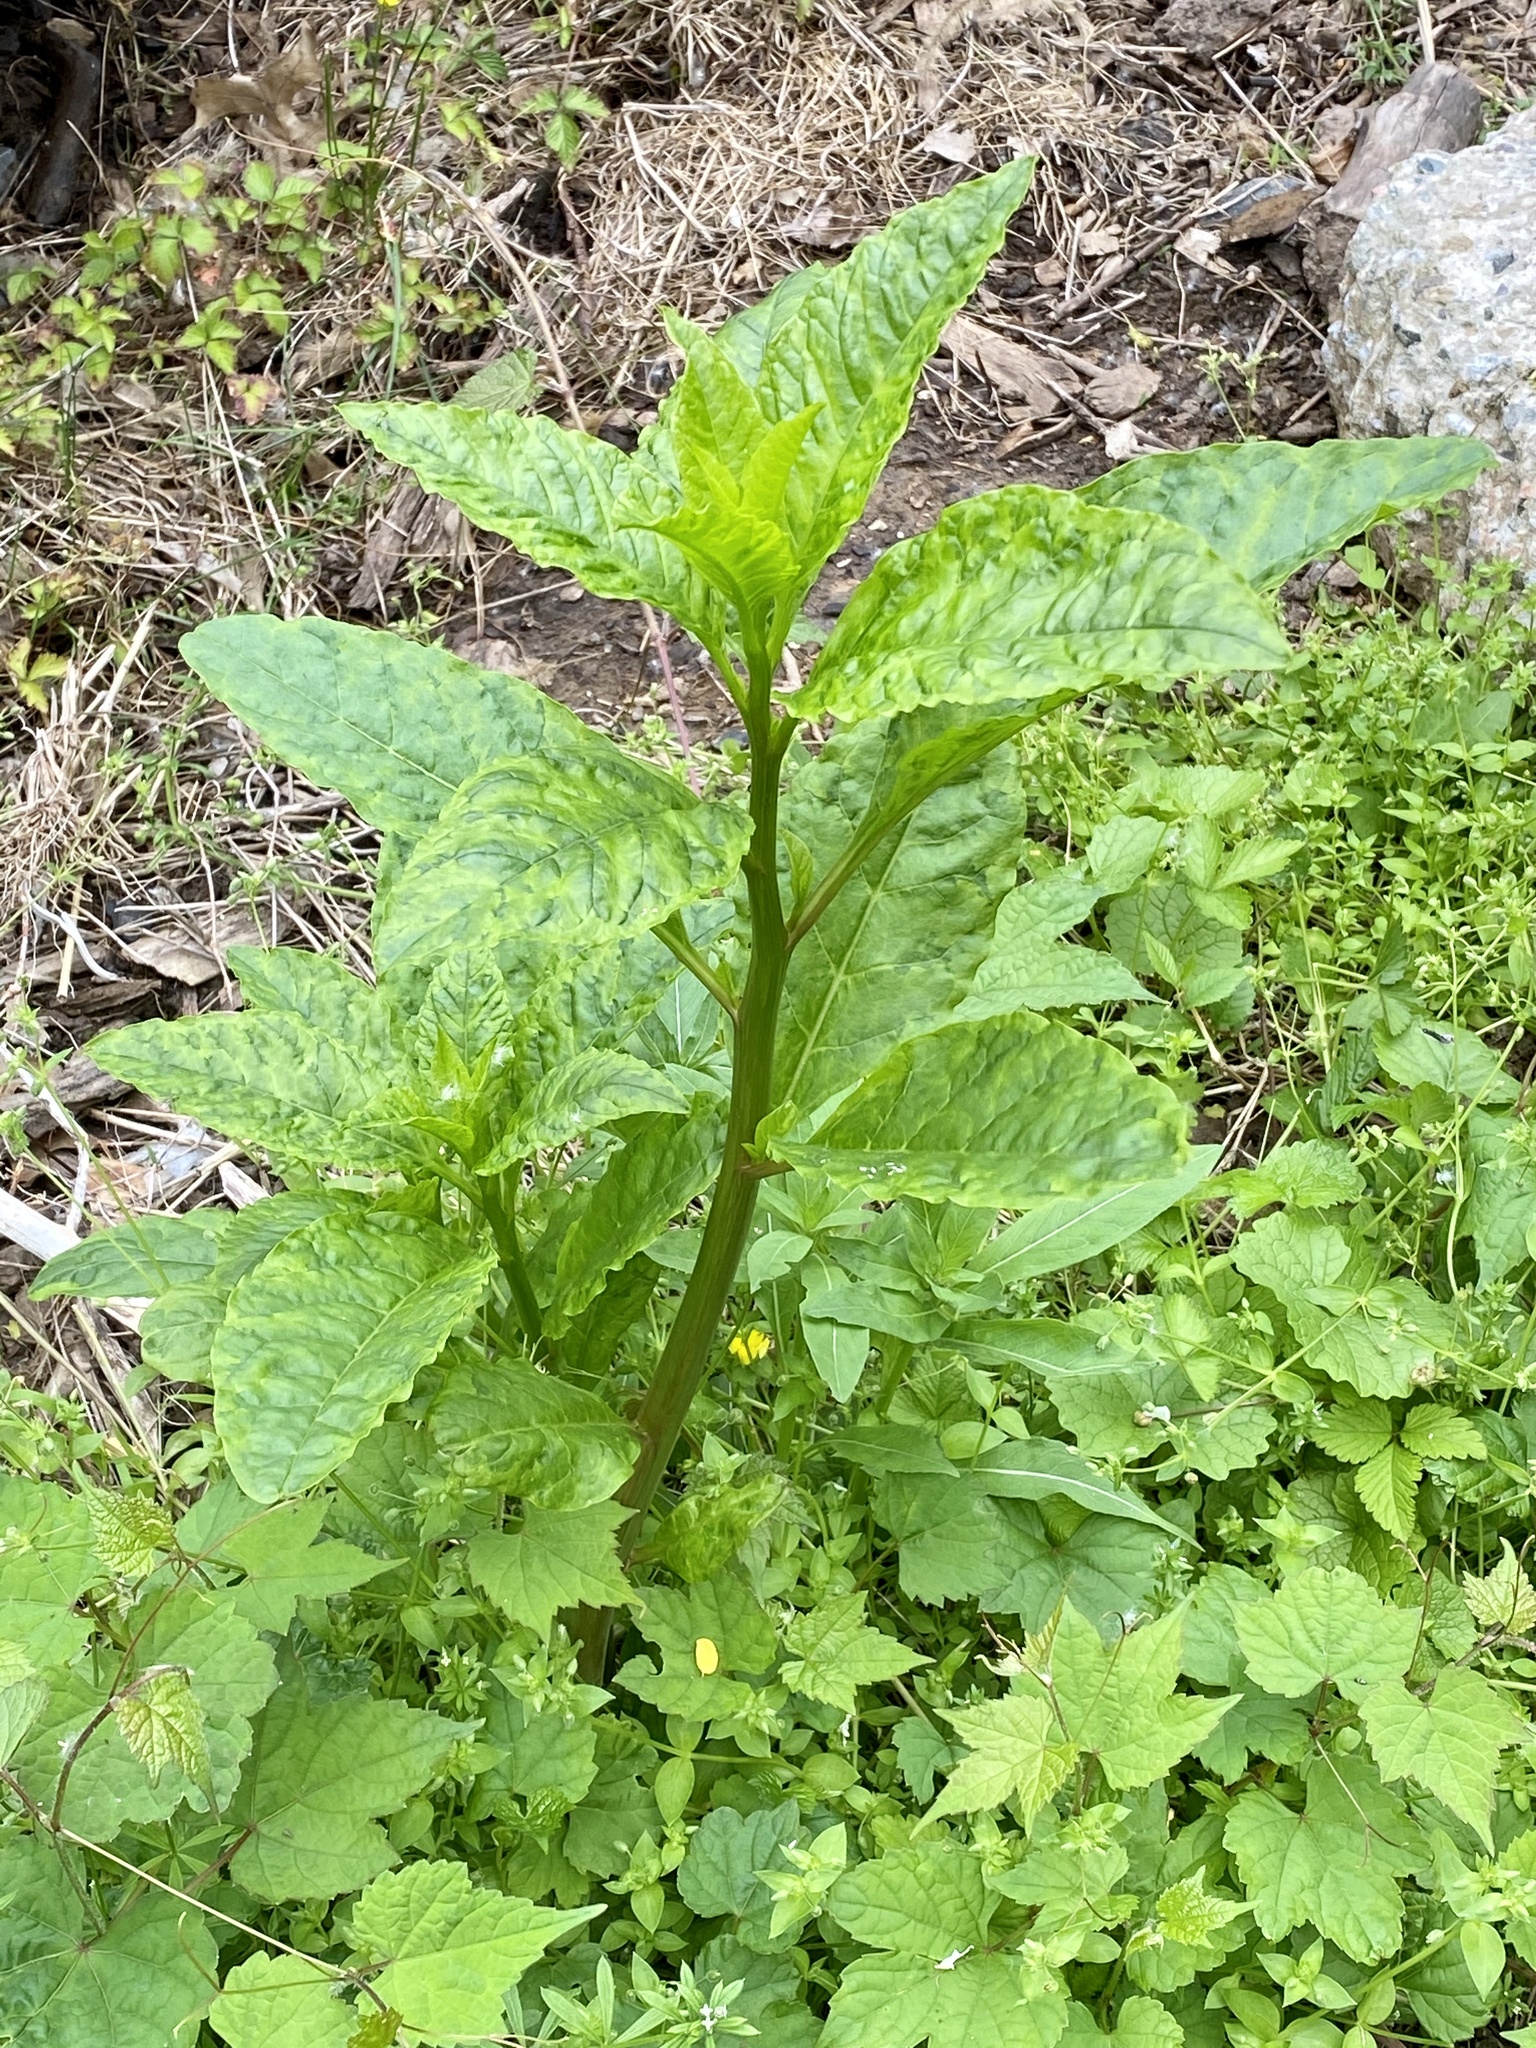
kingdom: Plantae
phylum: Tracheophyta
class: Magnoliopsida
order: Caryophyllales
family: Phytolaccaceae
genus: Phytolacca
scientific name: Phytolacca americana
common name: American pokeweed
